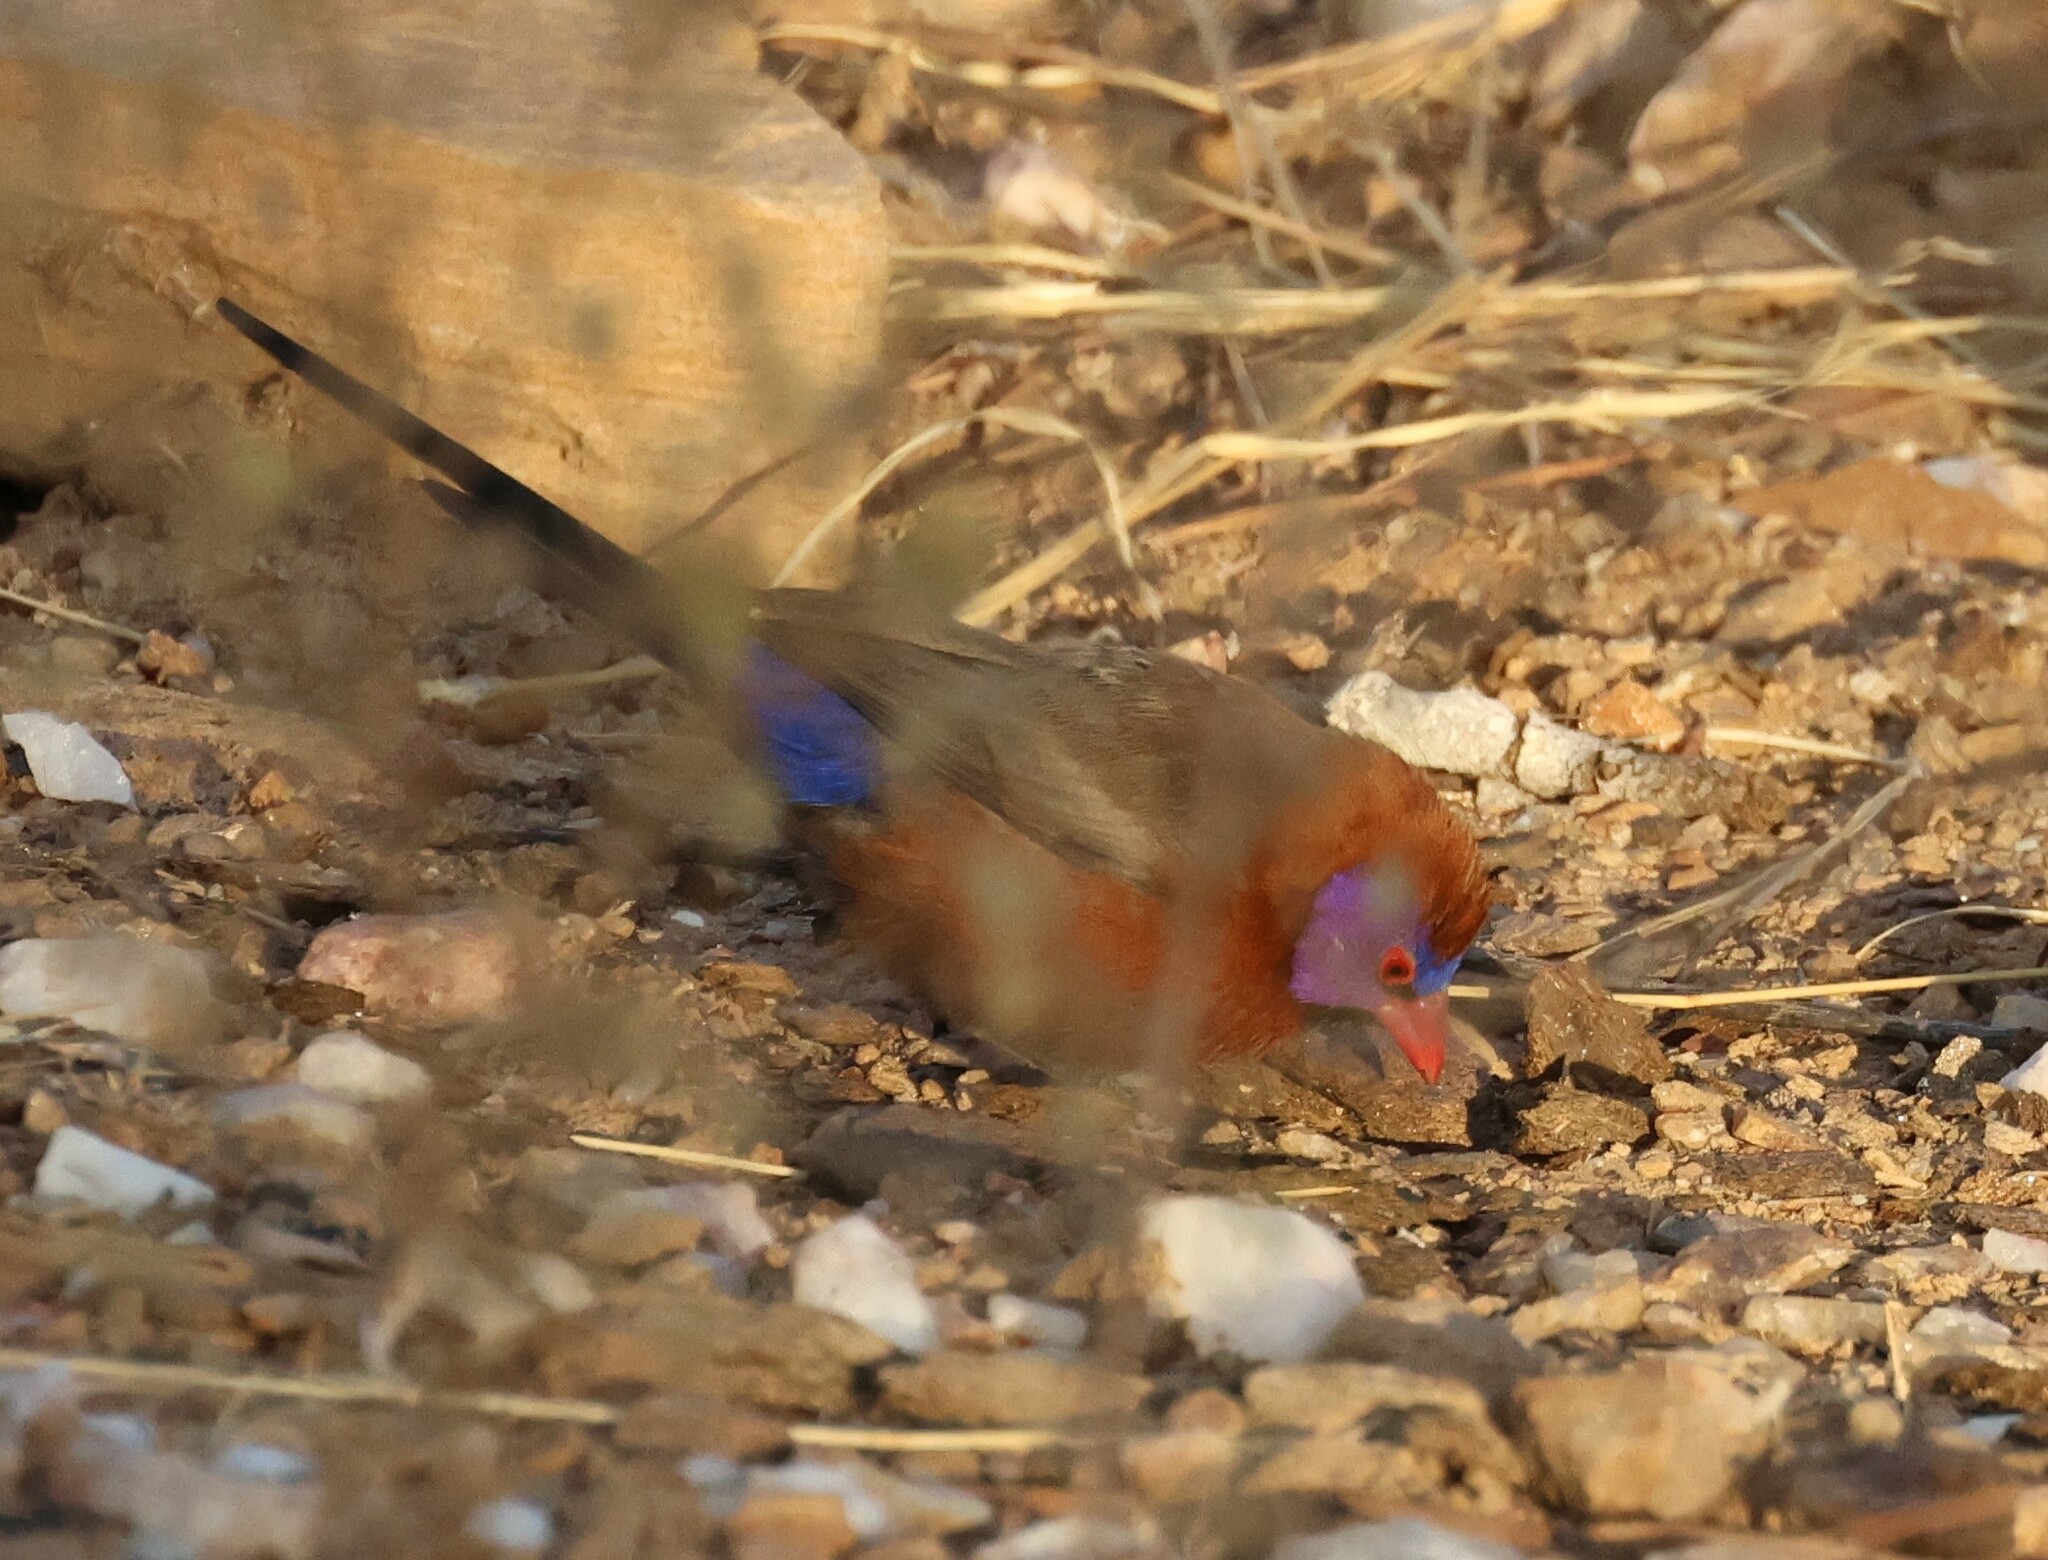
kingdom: Animalia
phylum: Chordata
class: Aves
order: Passeriformes
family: Estrildidae
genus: Uraeginthus
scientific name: Uraeginthus granatinus
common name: Violet-eared waxbill
